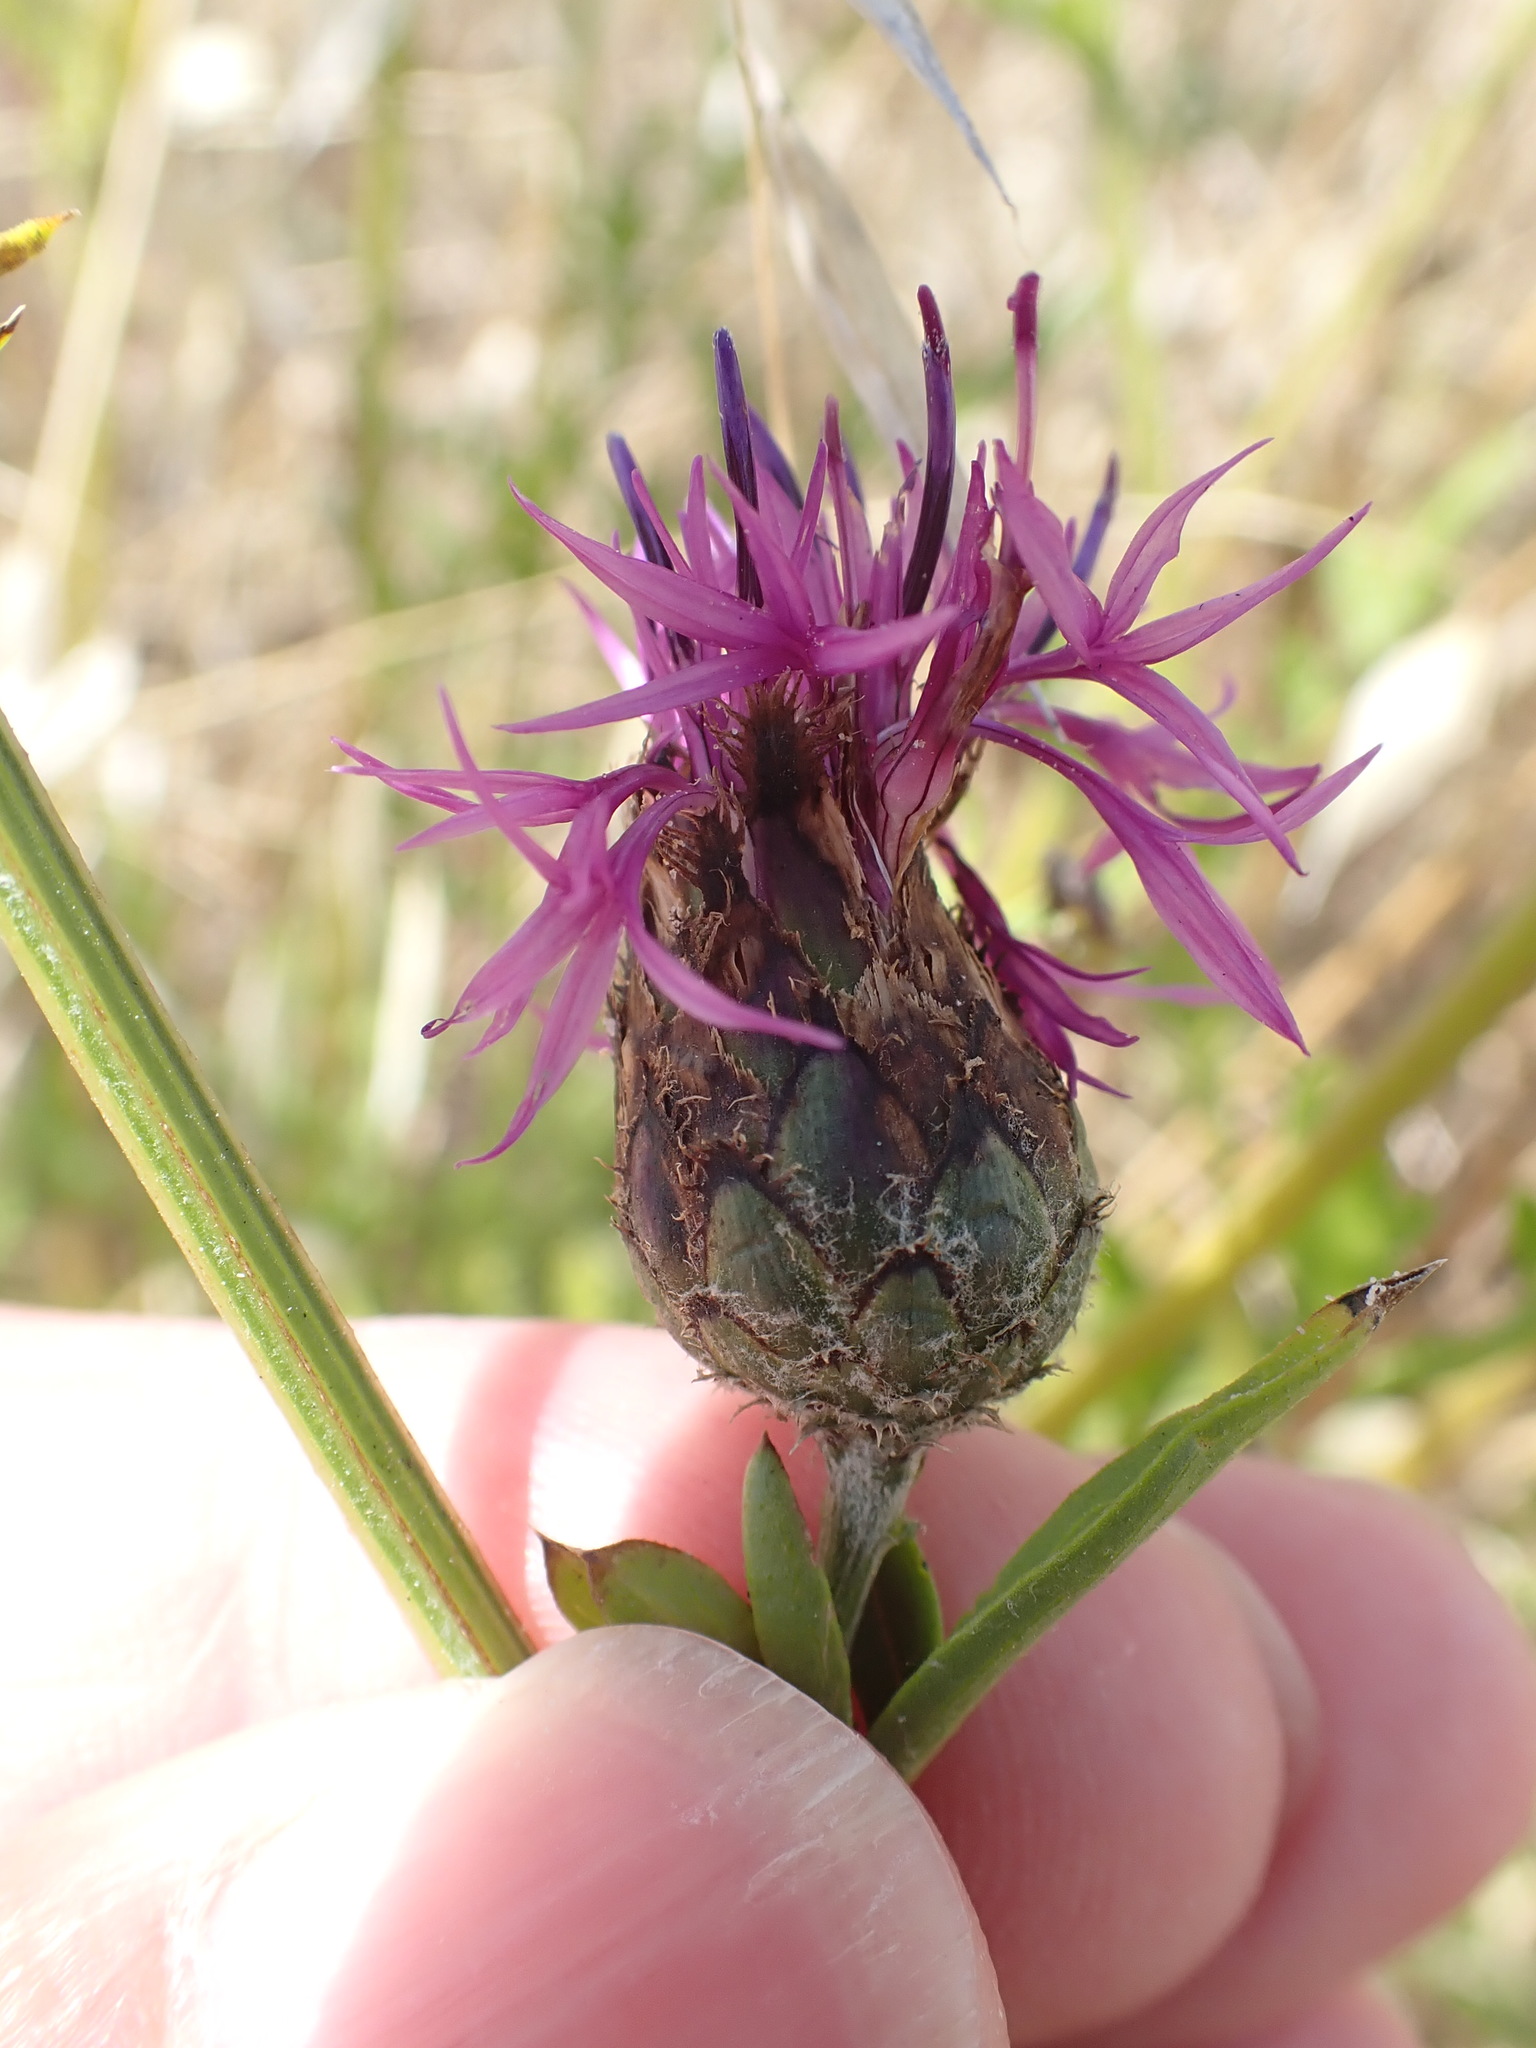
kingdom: Plantae
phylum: Tracheophyta
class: Magnoliopsida
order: Asterales
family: Asteraceae
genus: Centaurea
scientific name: Centaurea scabiosa
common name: Greater knapweed
